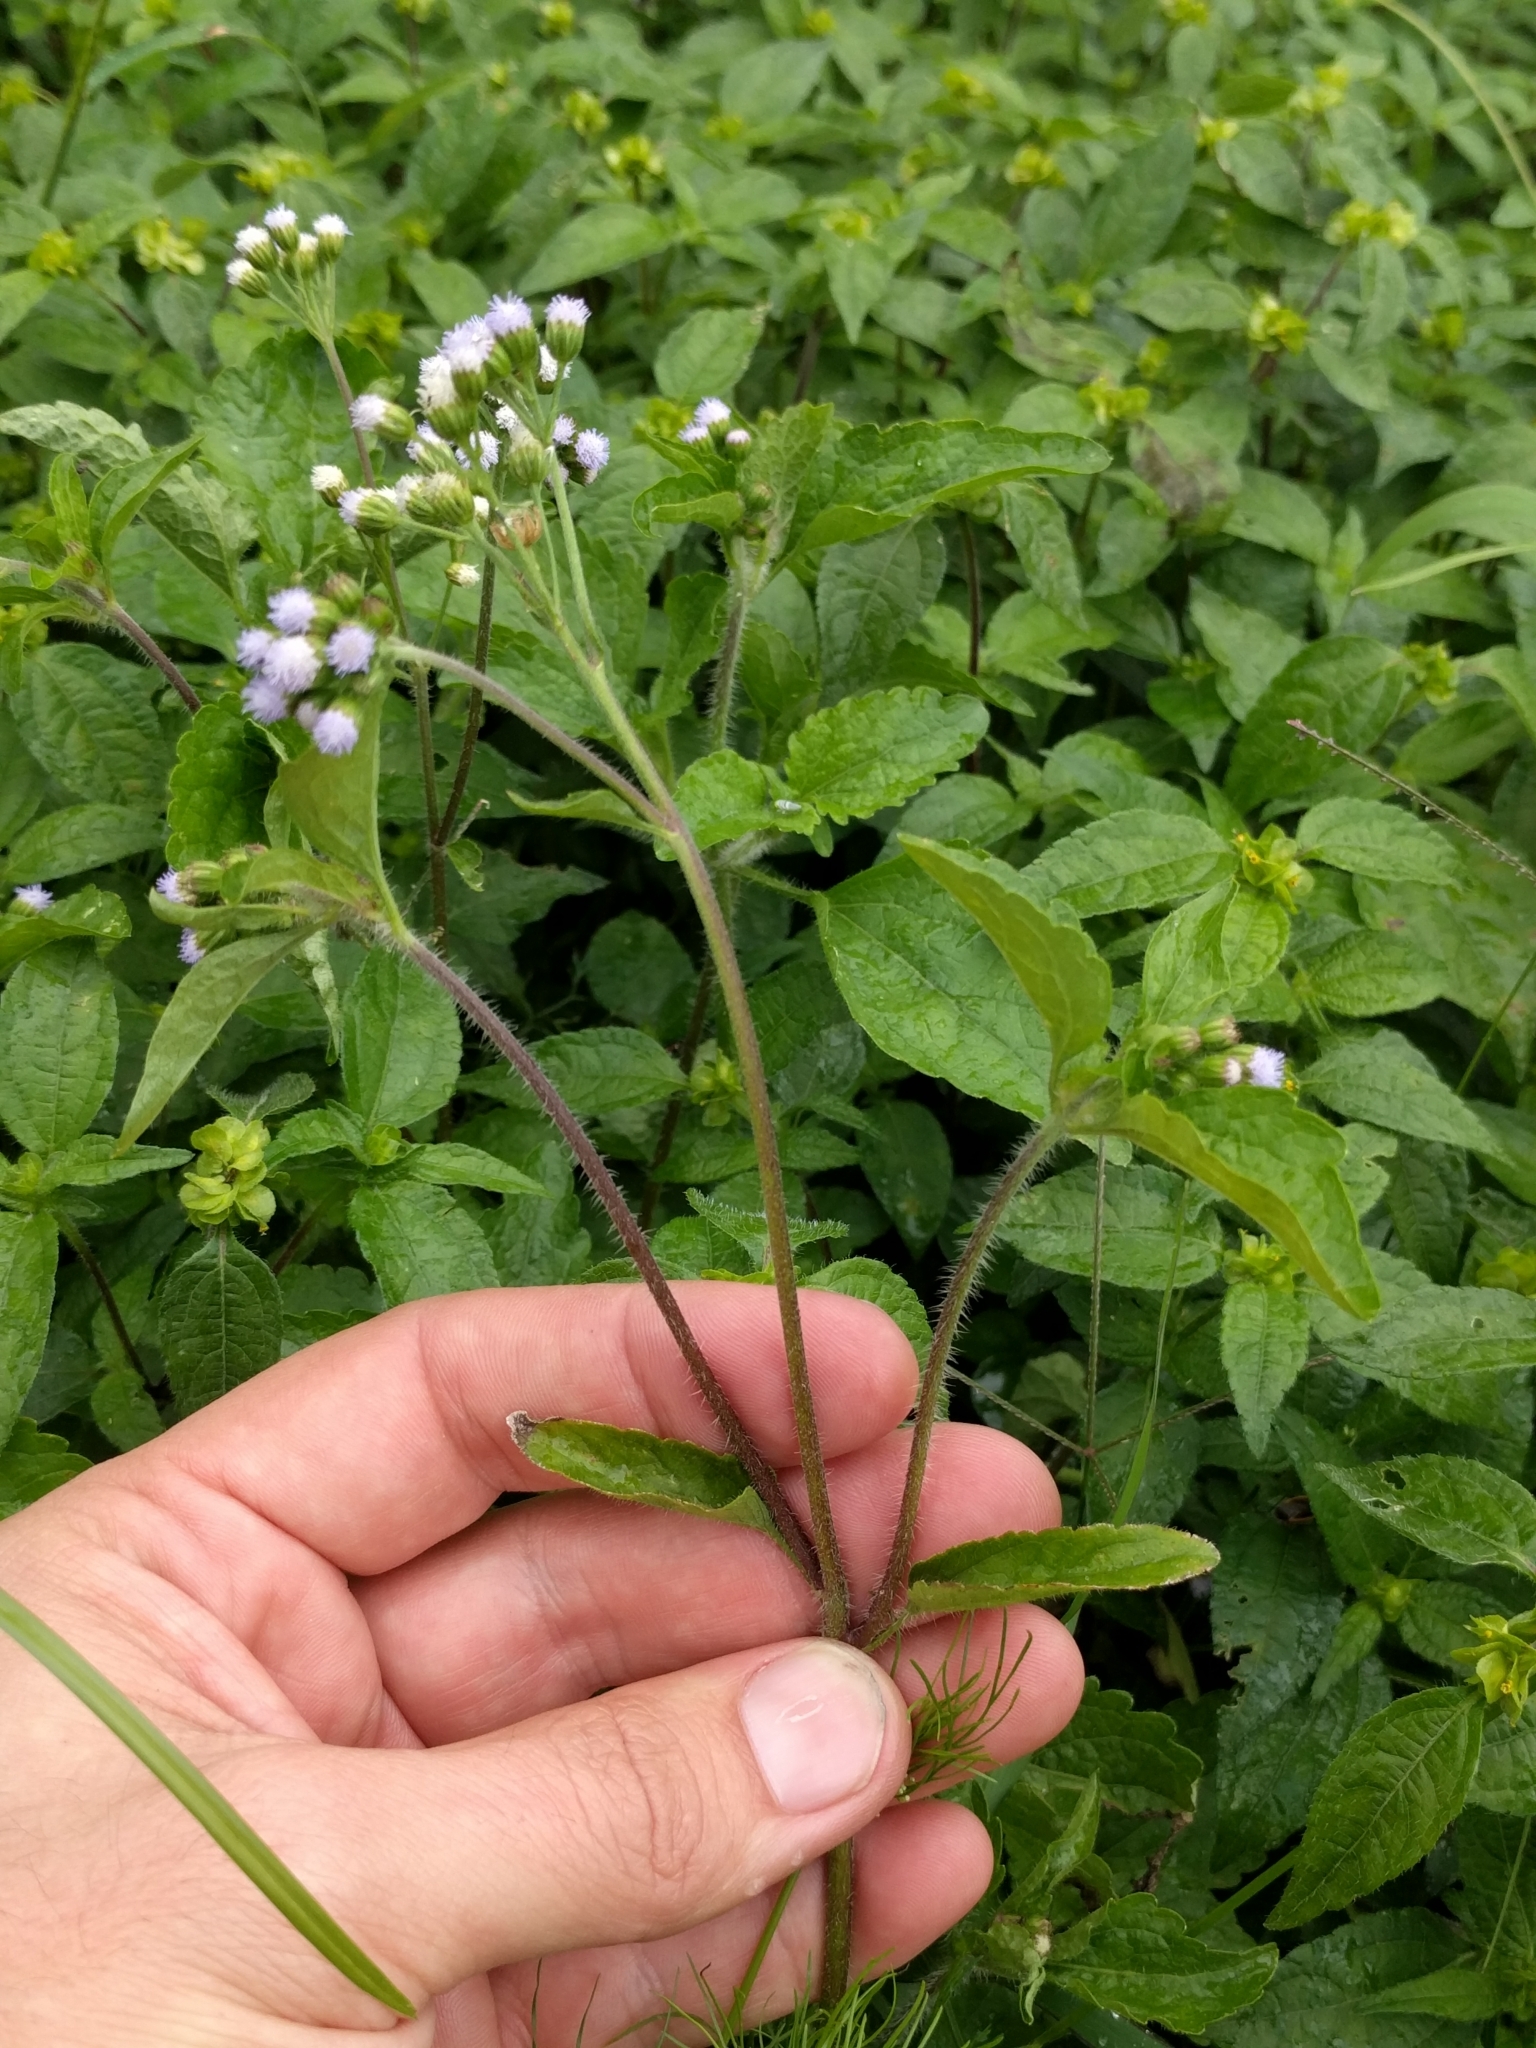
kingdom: Plantae
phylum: Tracheophyta
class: Magnoliopsida
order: Asterales
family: Asteraceae
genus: Ageratum
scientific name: Ageratum conyzoides
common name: Tropical whiteweed
